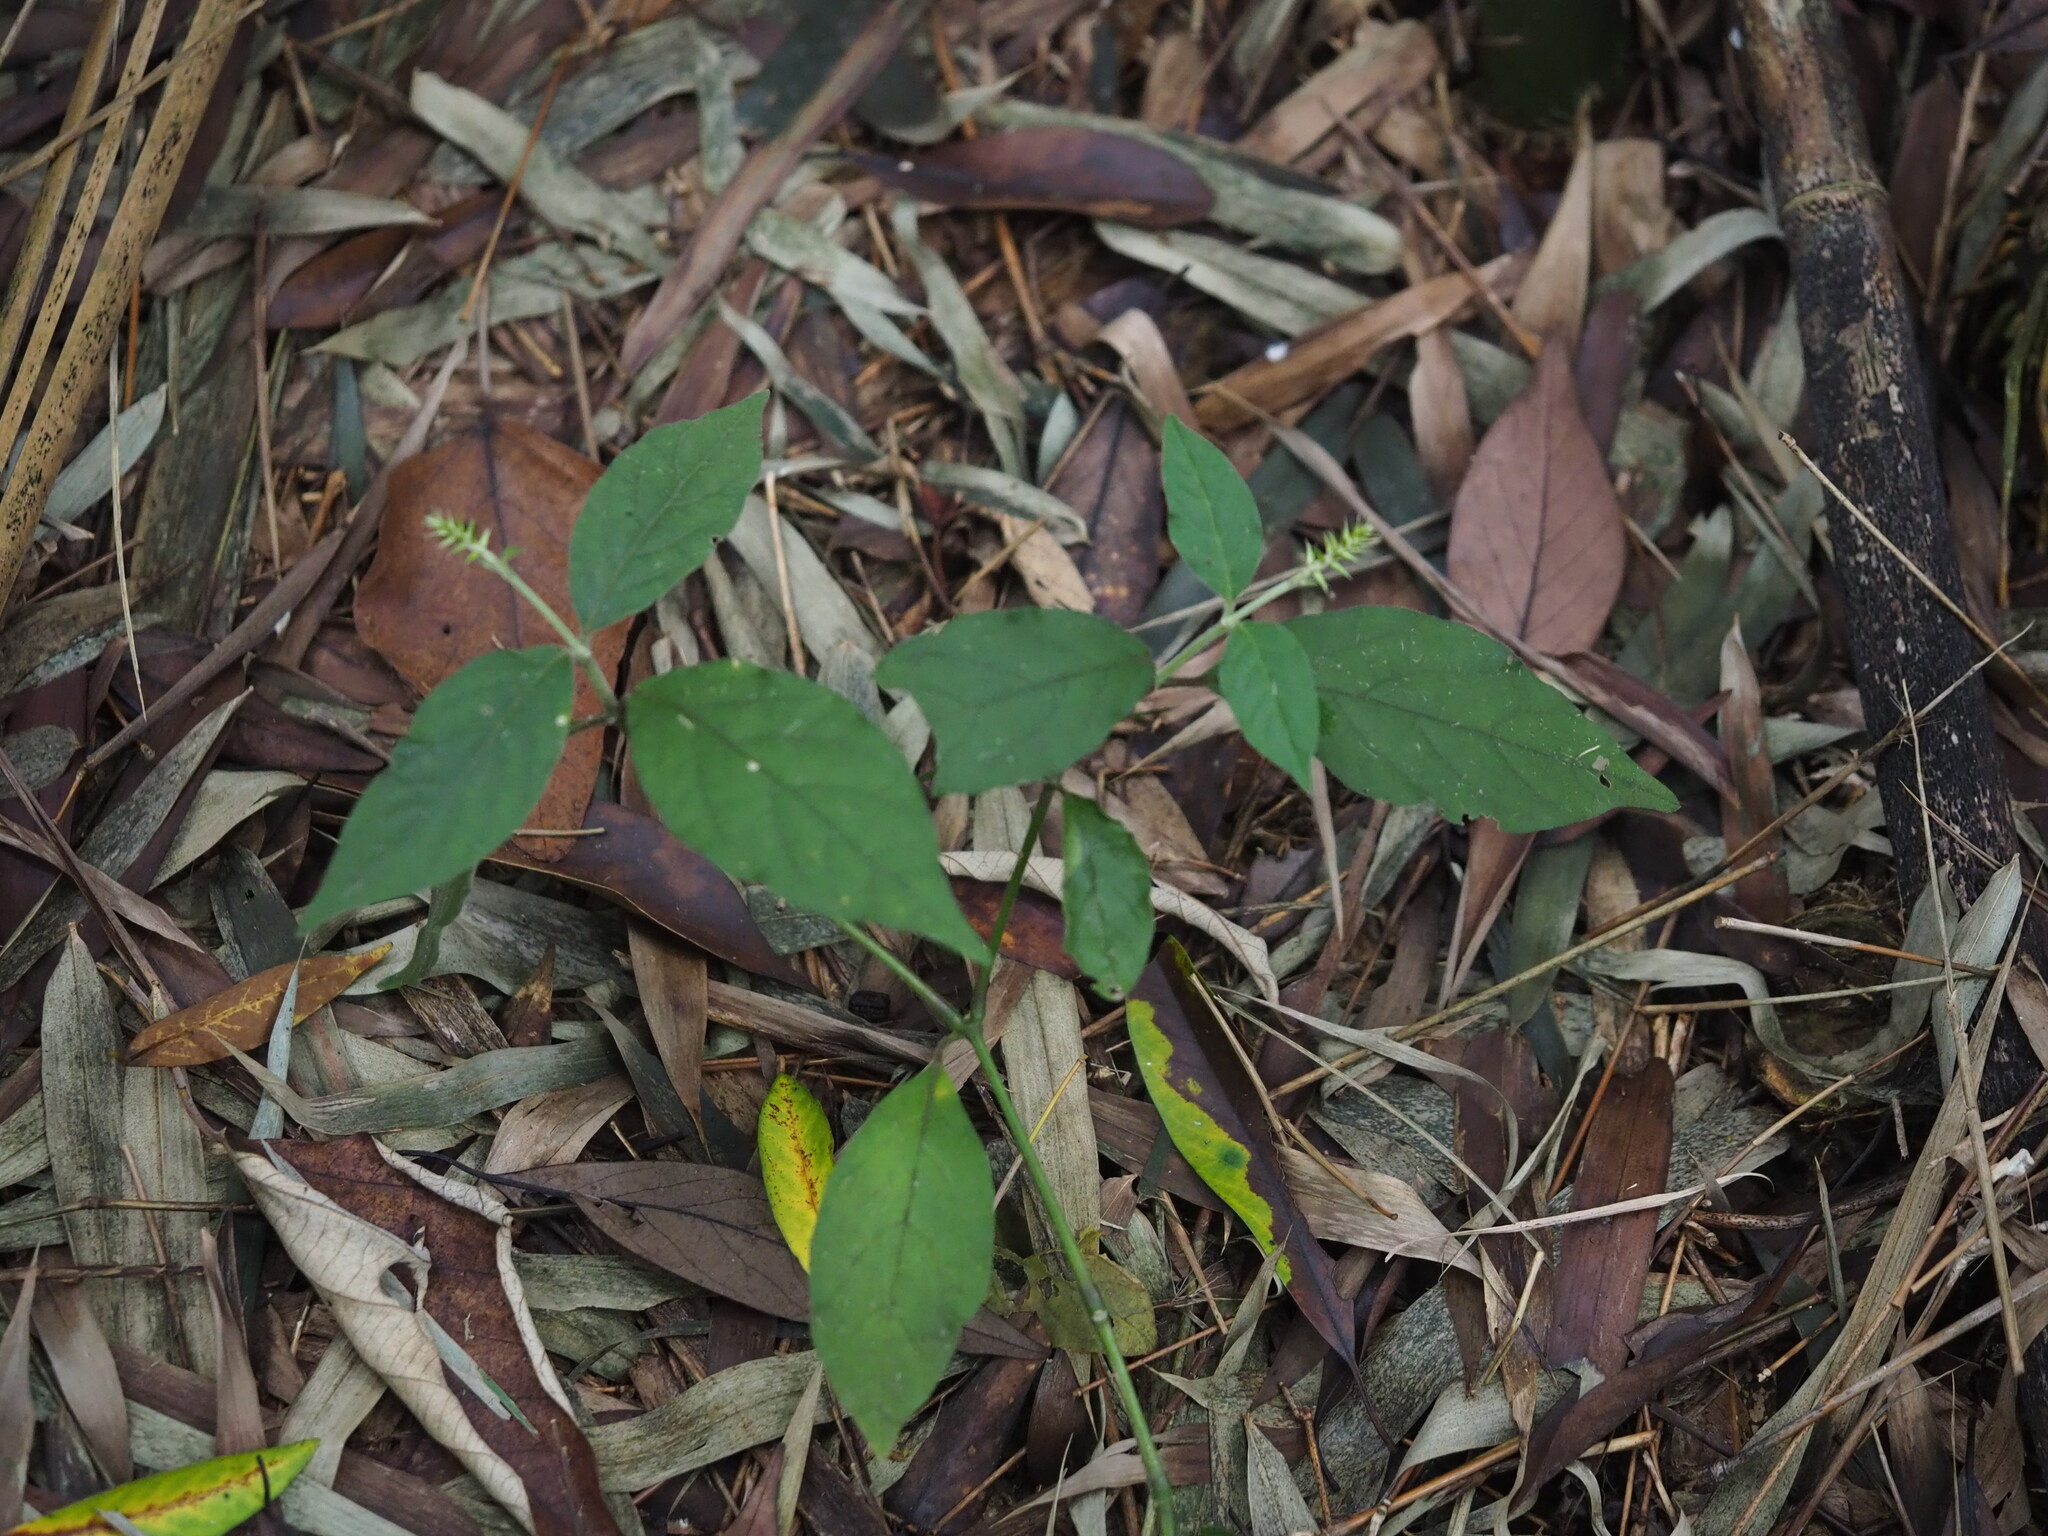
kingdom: Plantae
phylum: Tracheophyta
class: Magnoliopsida
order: Caryophyllales
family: Amaranthaceae
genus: Achyranthes
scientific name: Achyranthes bidentata
